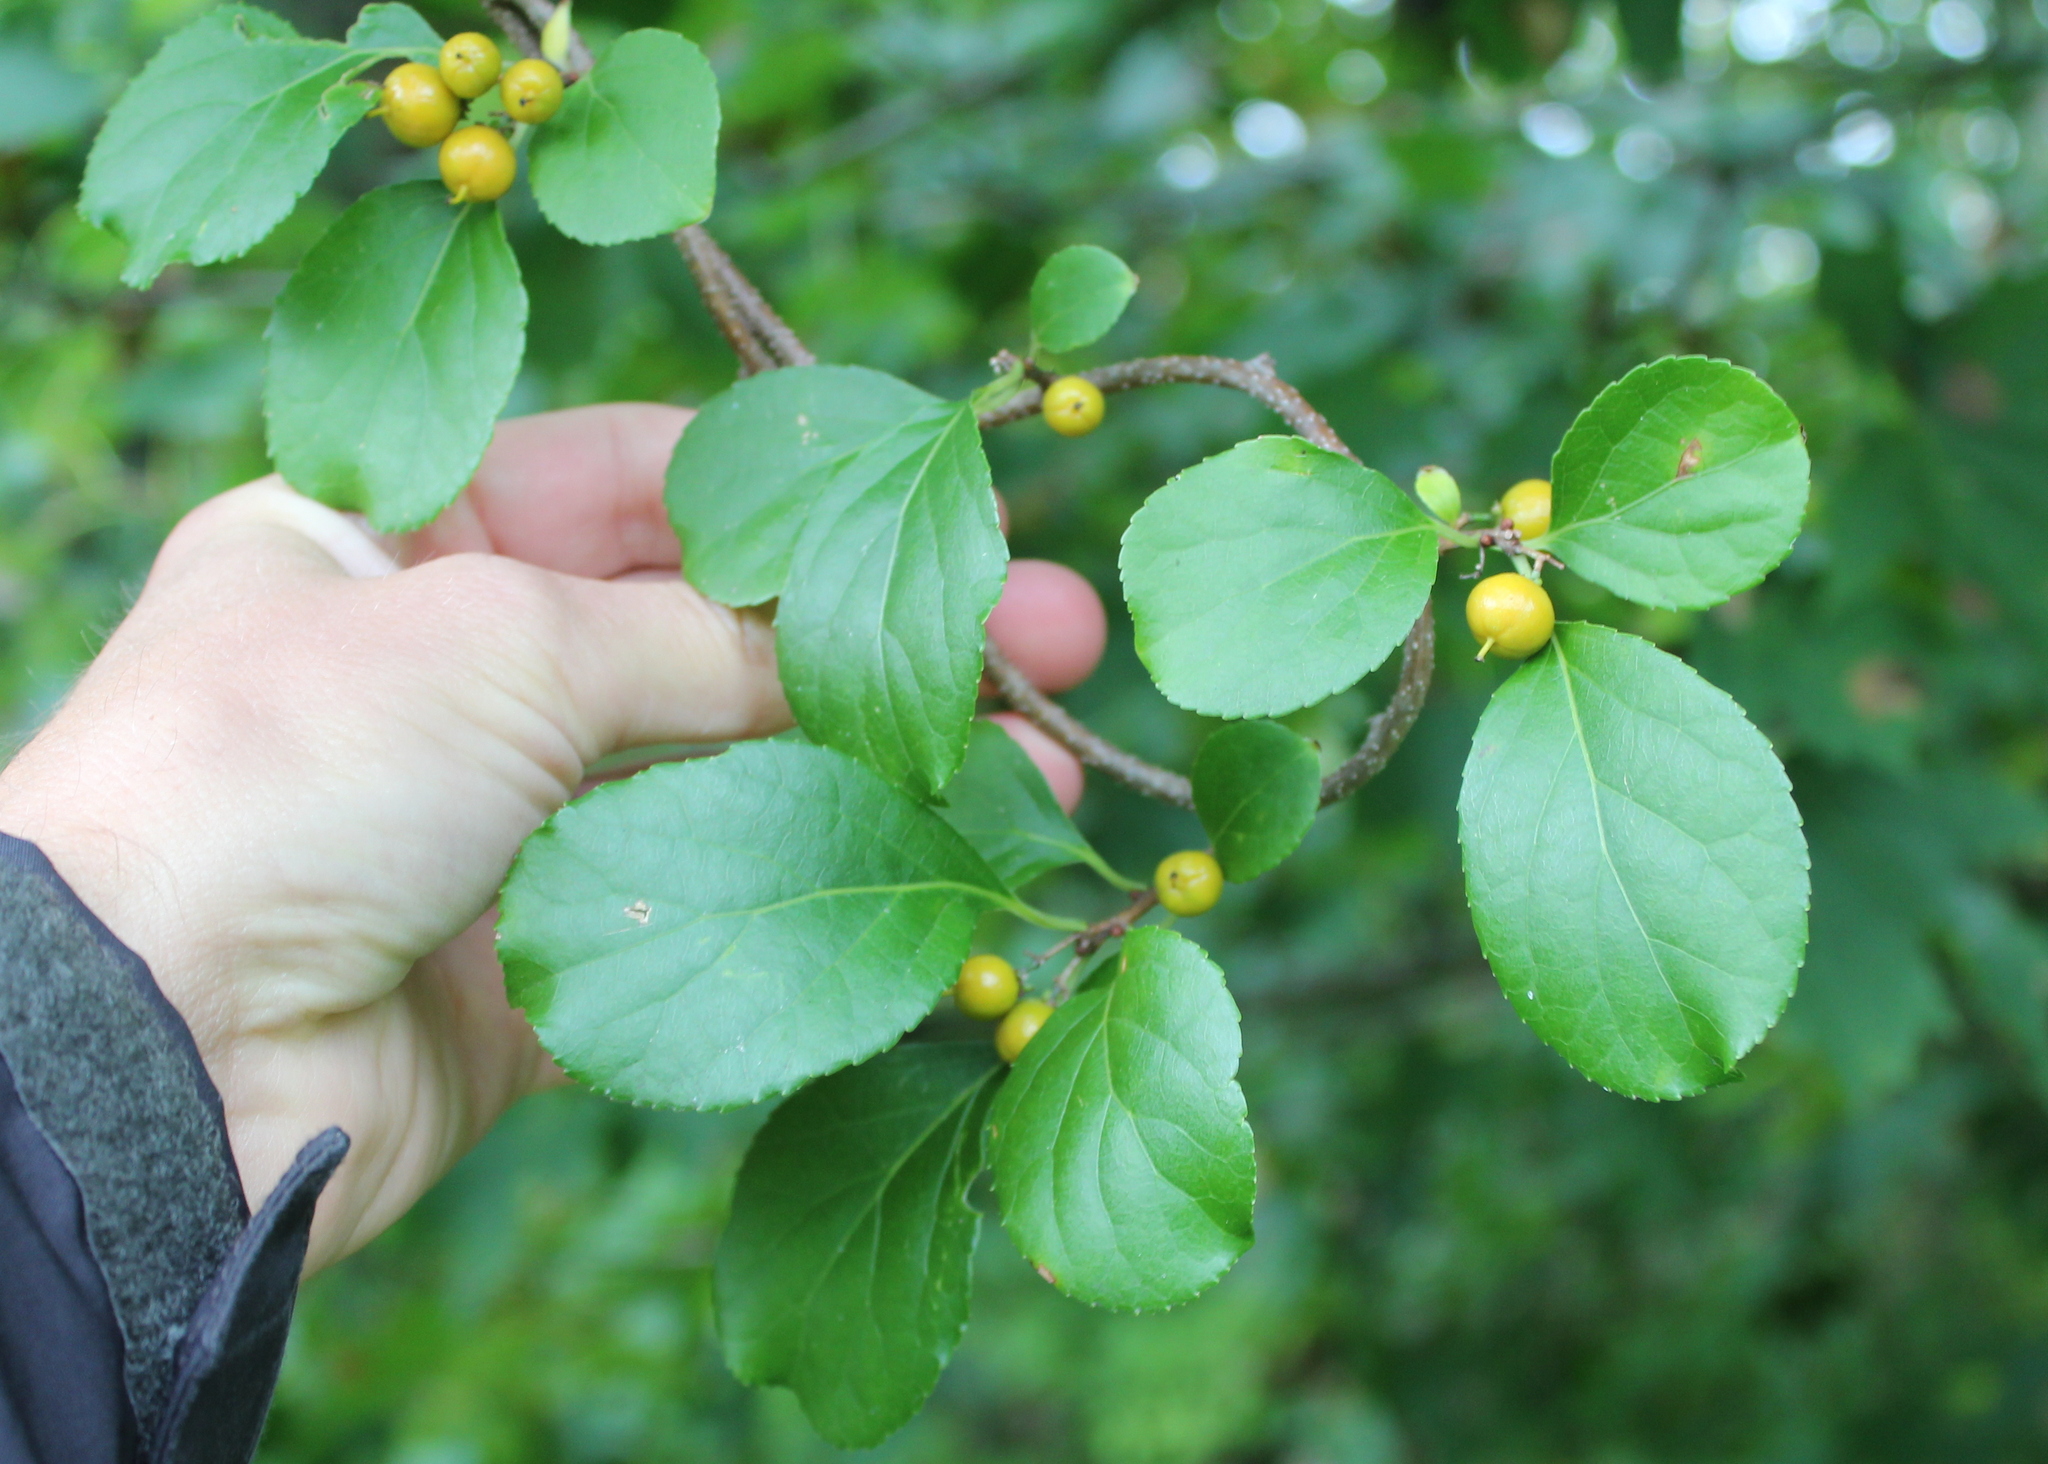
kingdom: Plantae
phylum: Tracheophyta
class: Magnoliopsida
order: Celastrales
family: Celastraceae
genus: Celastrus
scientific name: Celastrus orbiculatus
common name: Oriental bittersweet
